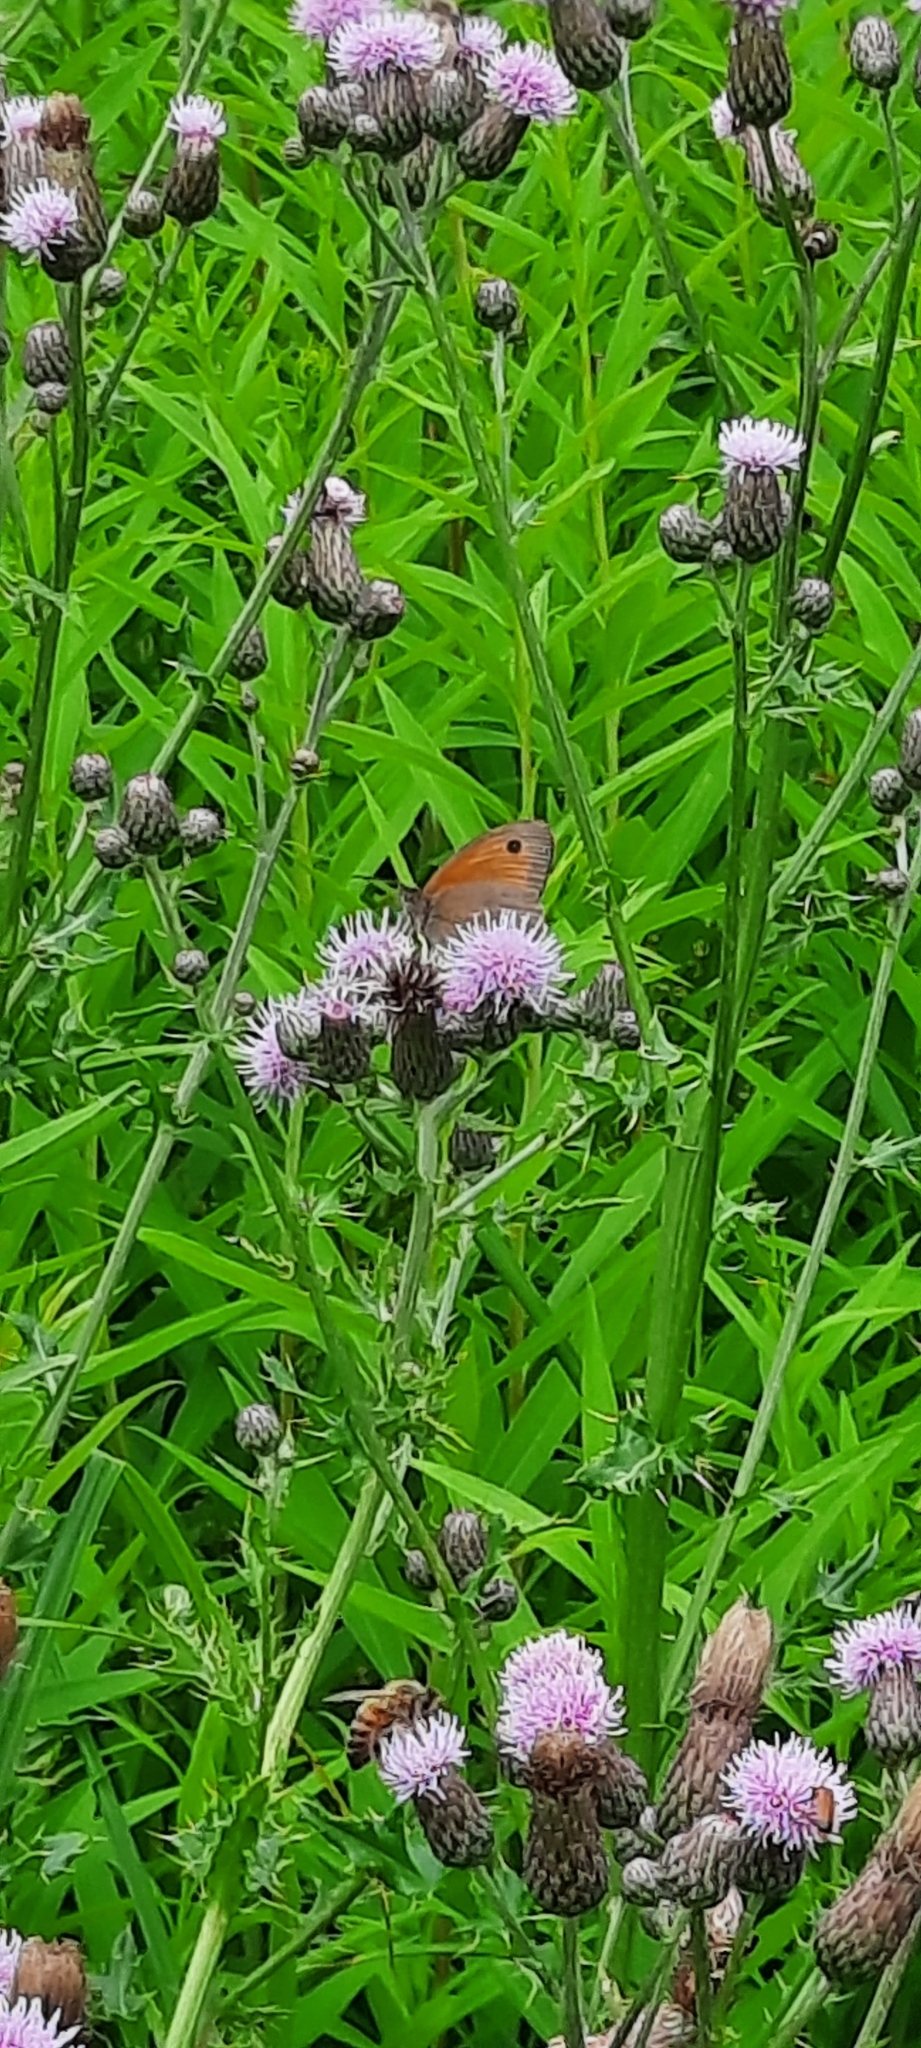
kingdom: Animalia
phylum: Arthropoda
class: Insecta
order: Lepidoptera
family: Nymphalidae
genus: Maniola
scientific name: Maniola jurtina
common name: Meadow brown
